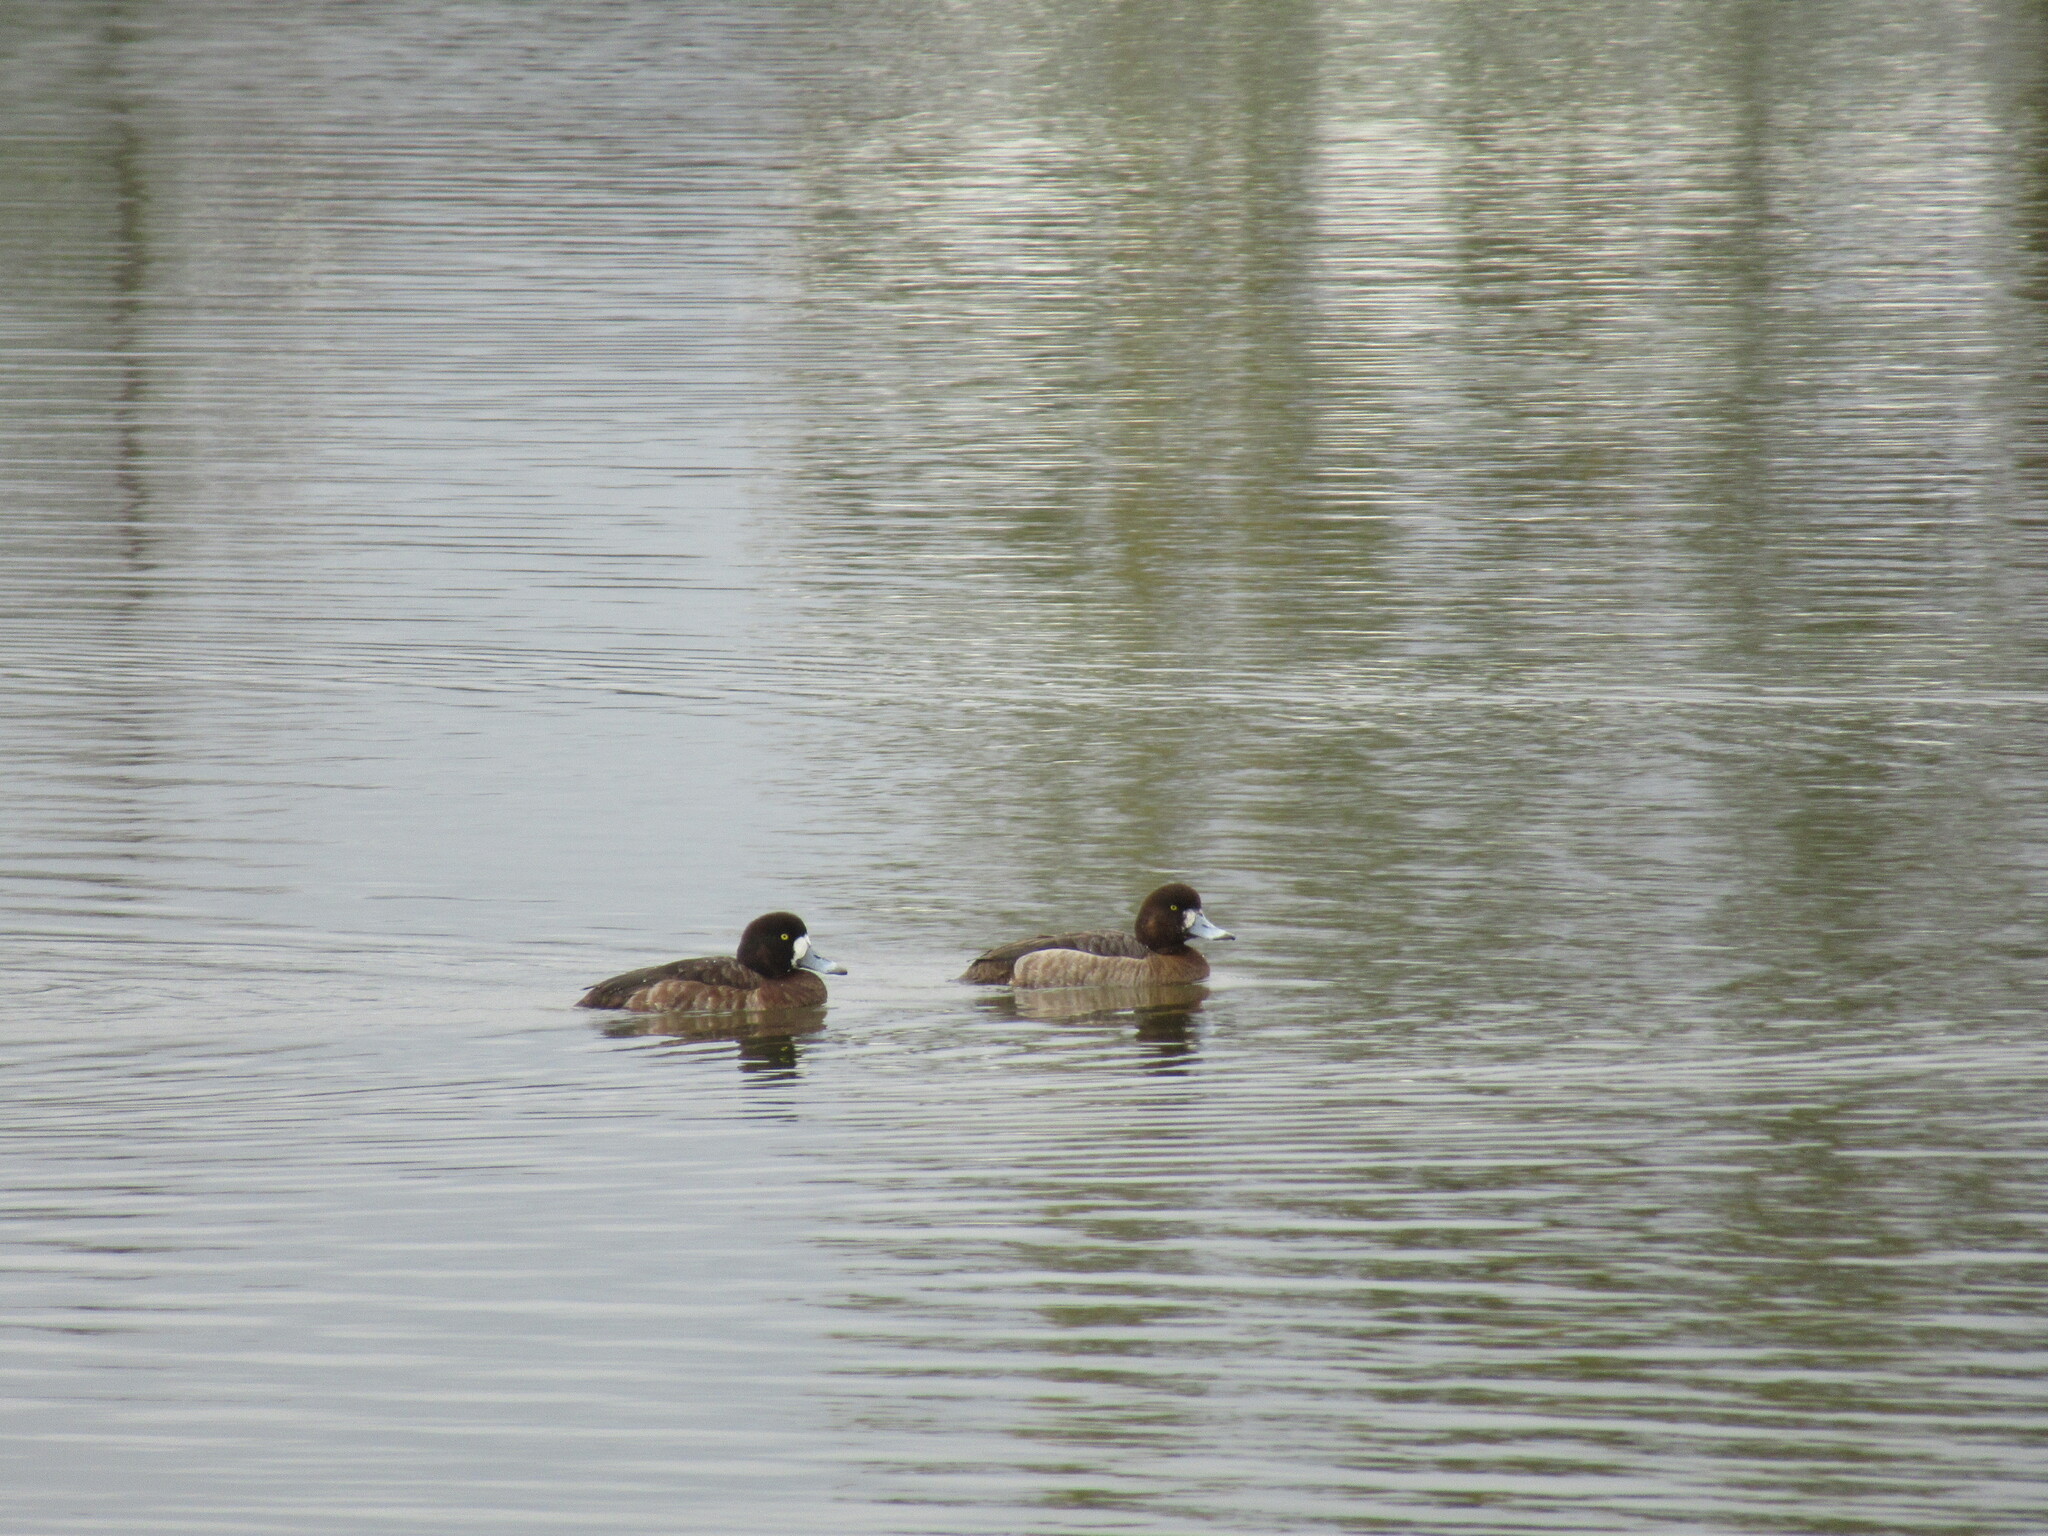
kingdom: Animalia
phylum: Chordata
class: Aves
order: Anseriformes
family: Anatidae
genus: Aythya
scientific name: Aythya marila
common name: Greater scaup
